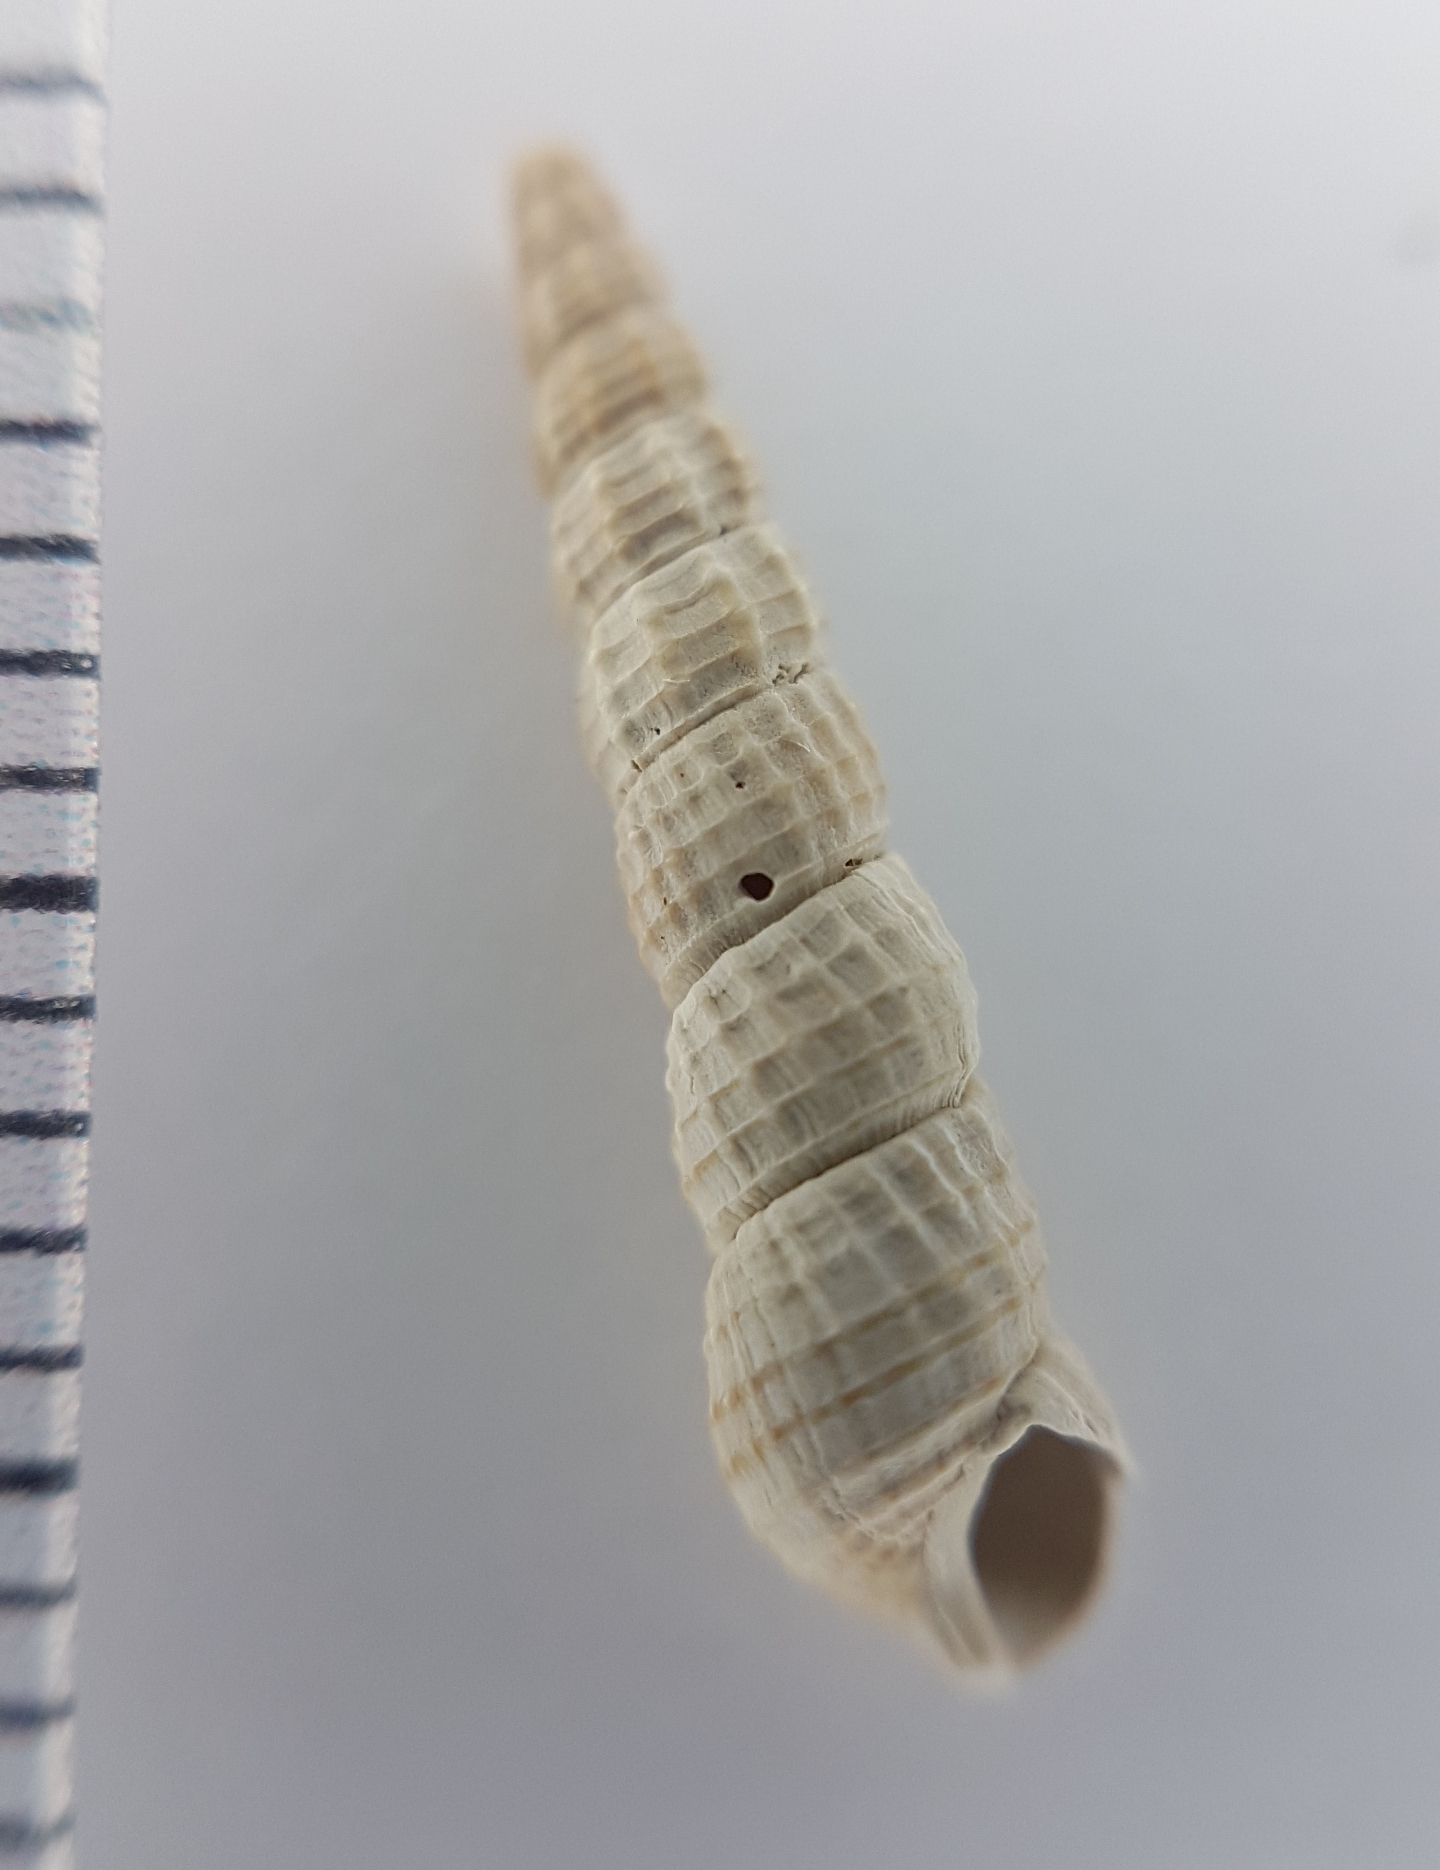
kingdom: Animalia
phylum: Mollusca
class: Gastropoda
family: Cerithiidae
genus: Bittium
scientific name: Bittium reticulatum
